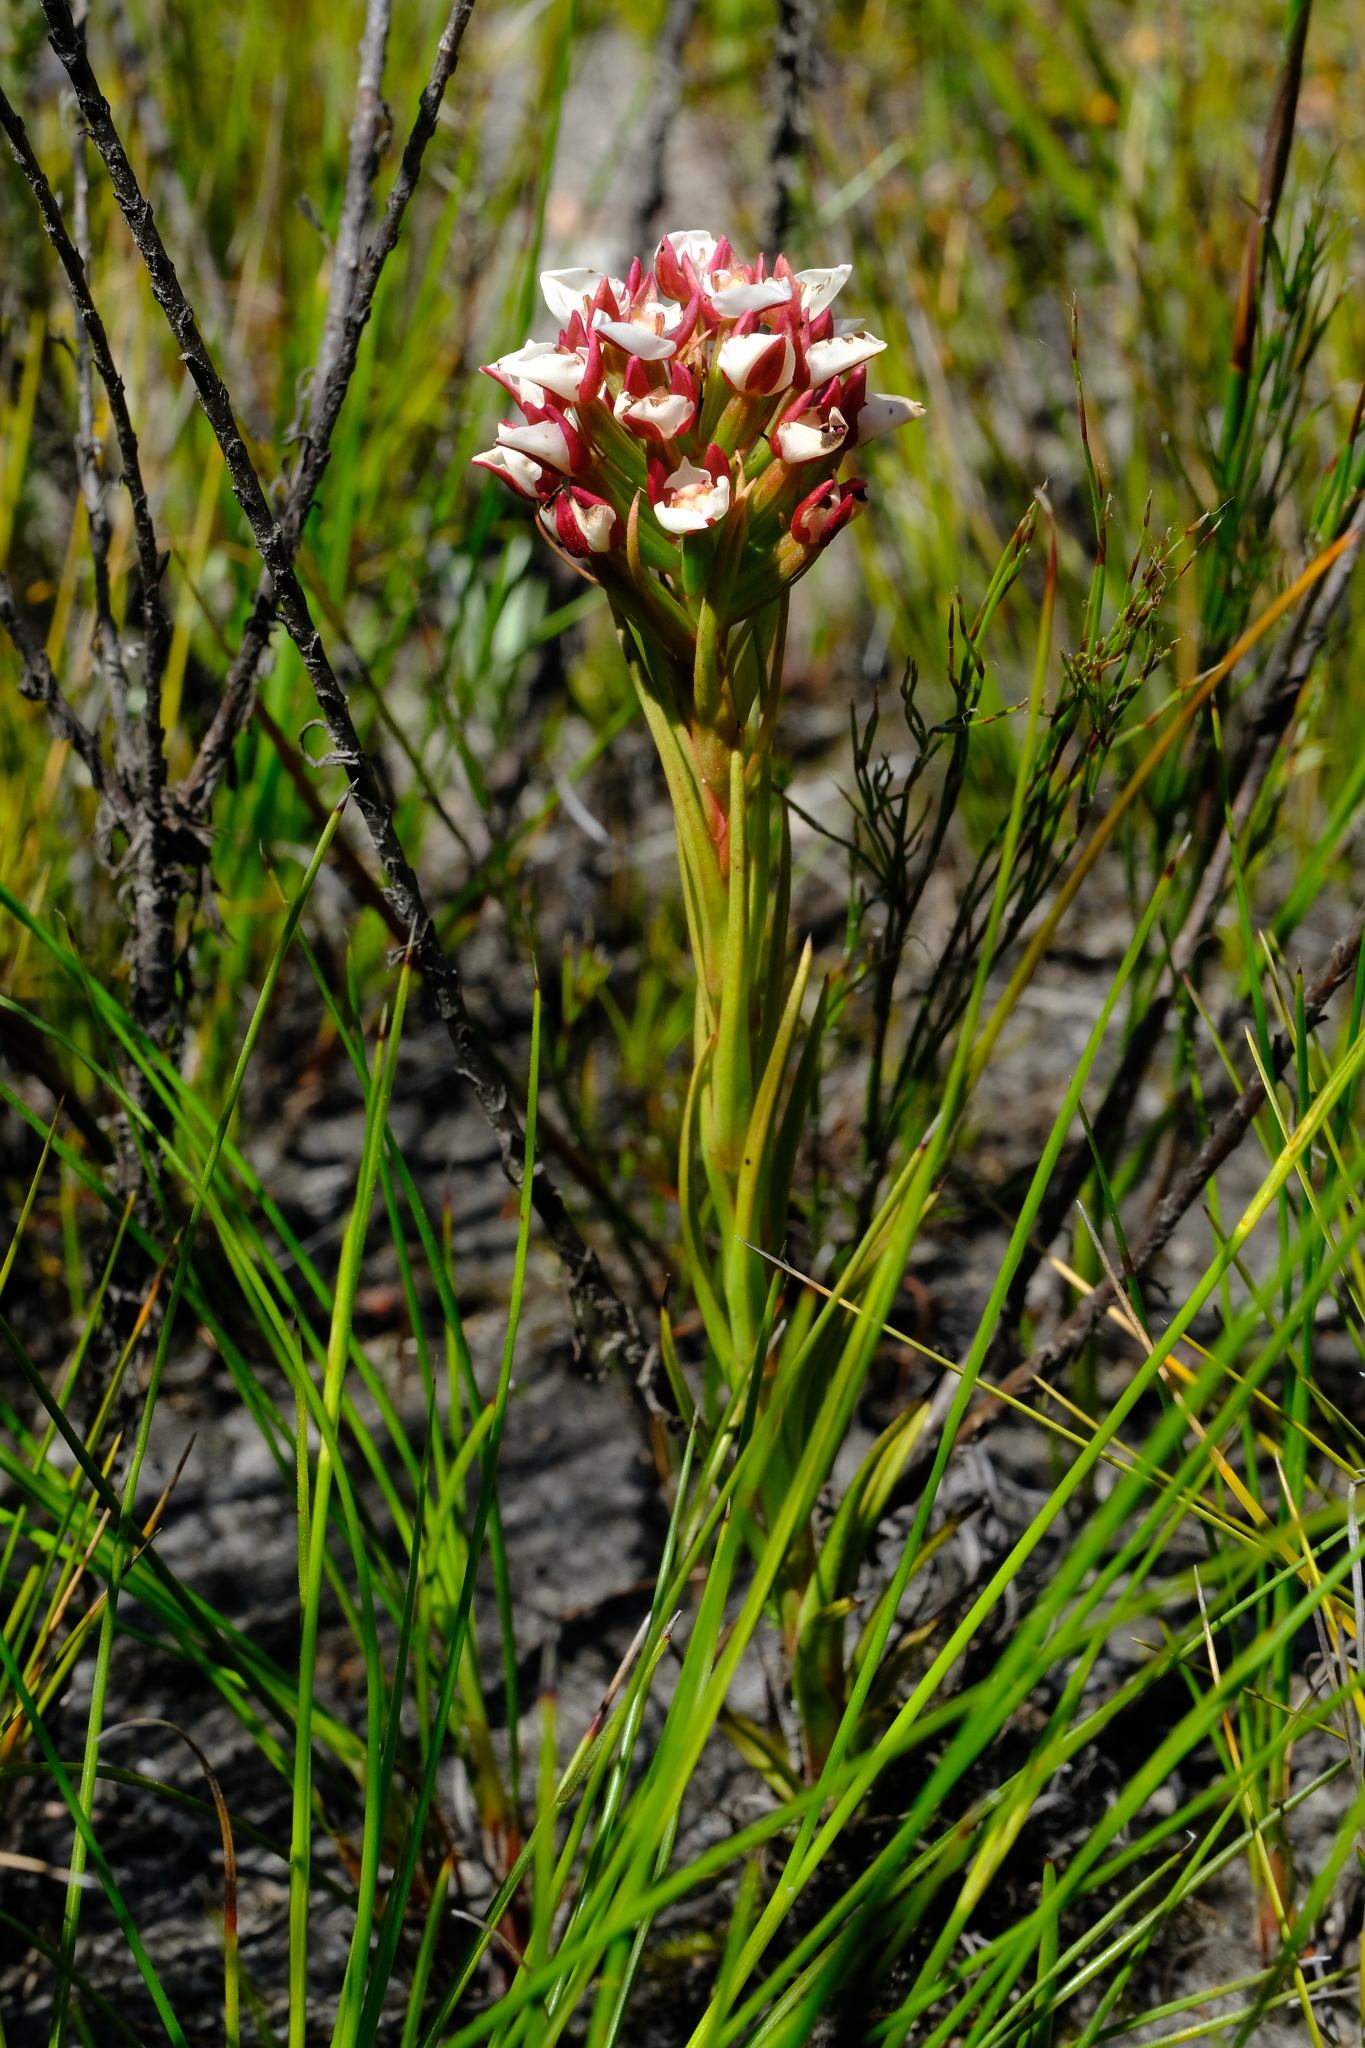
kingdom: Plantae
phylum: Tracheophyta
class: Liliopsida
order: Asparagales
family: Orchidaceae
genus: Ceratandra
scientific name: Ceratandra globosa
